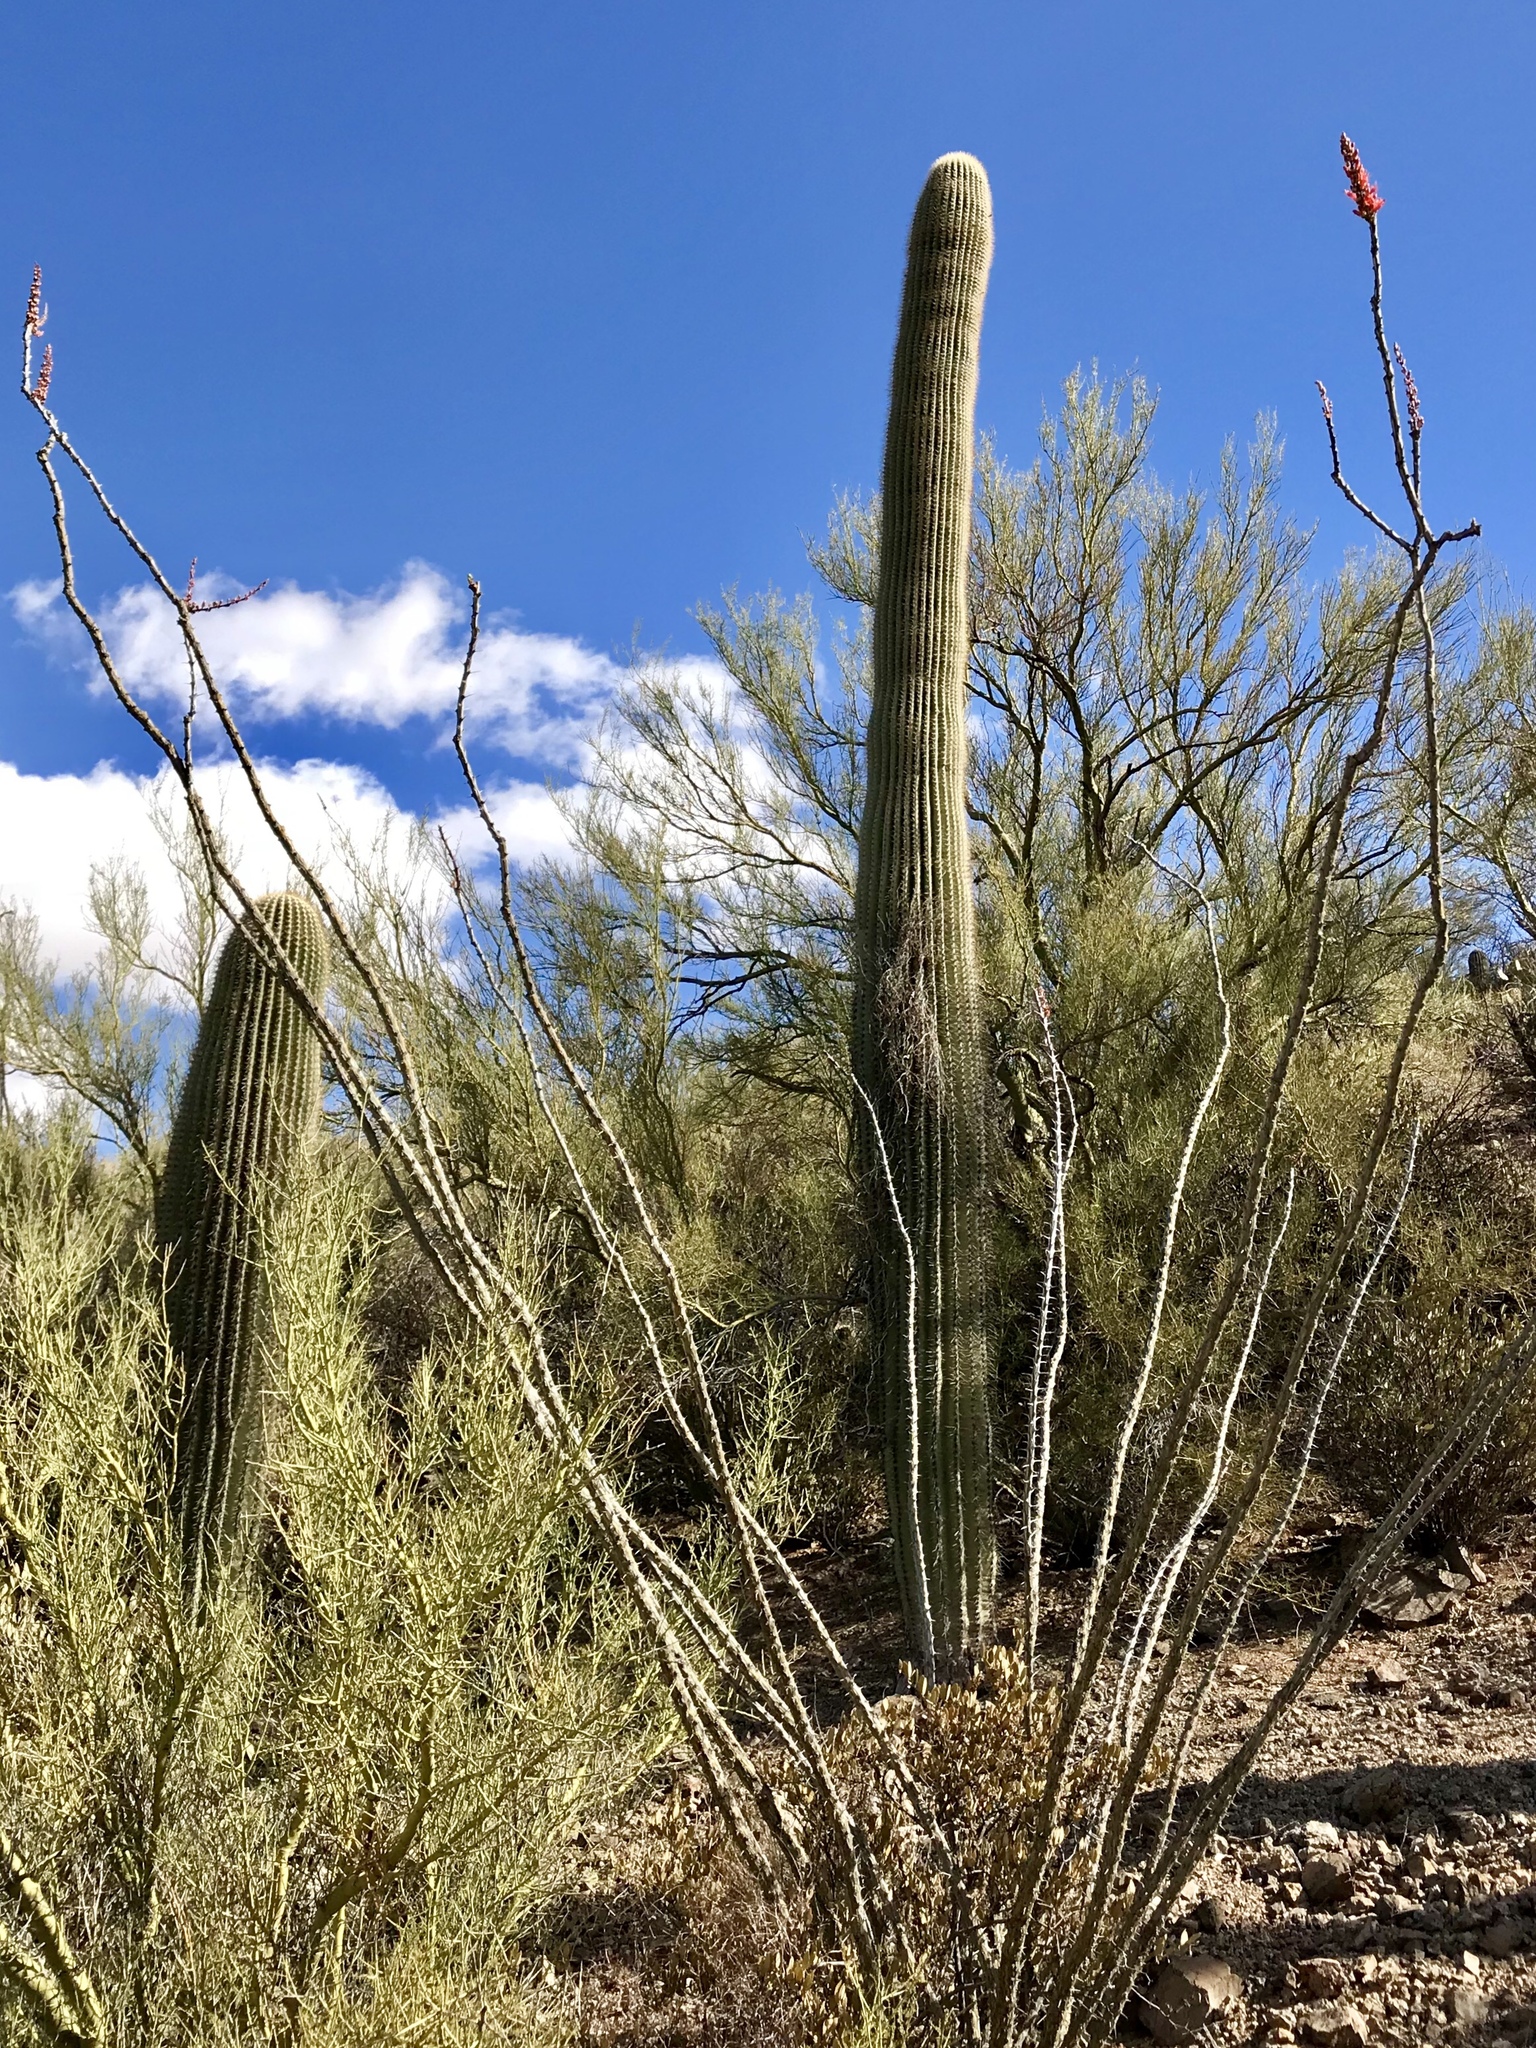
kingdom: Plantae
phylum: Tracheophyta
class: Magnoliopsida
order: Ericales
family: Fouquieriaceae
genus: Fouquieria
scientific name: Fouquieria splendens
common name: Vine-cactus
